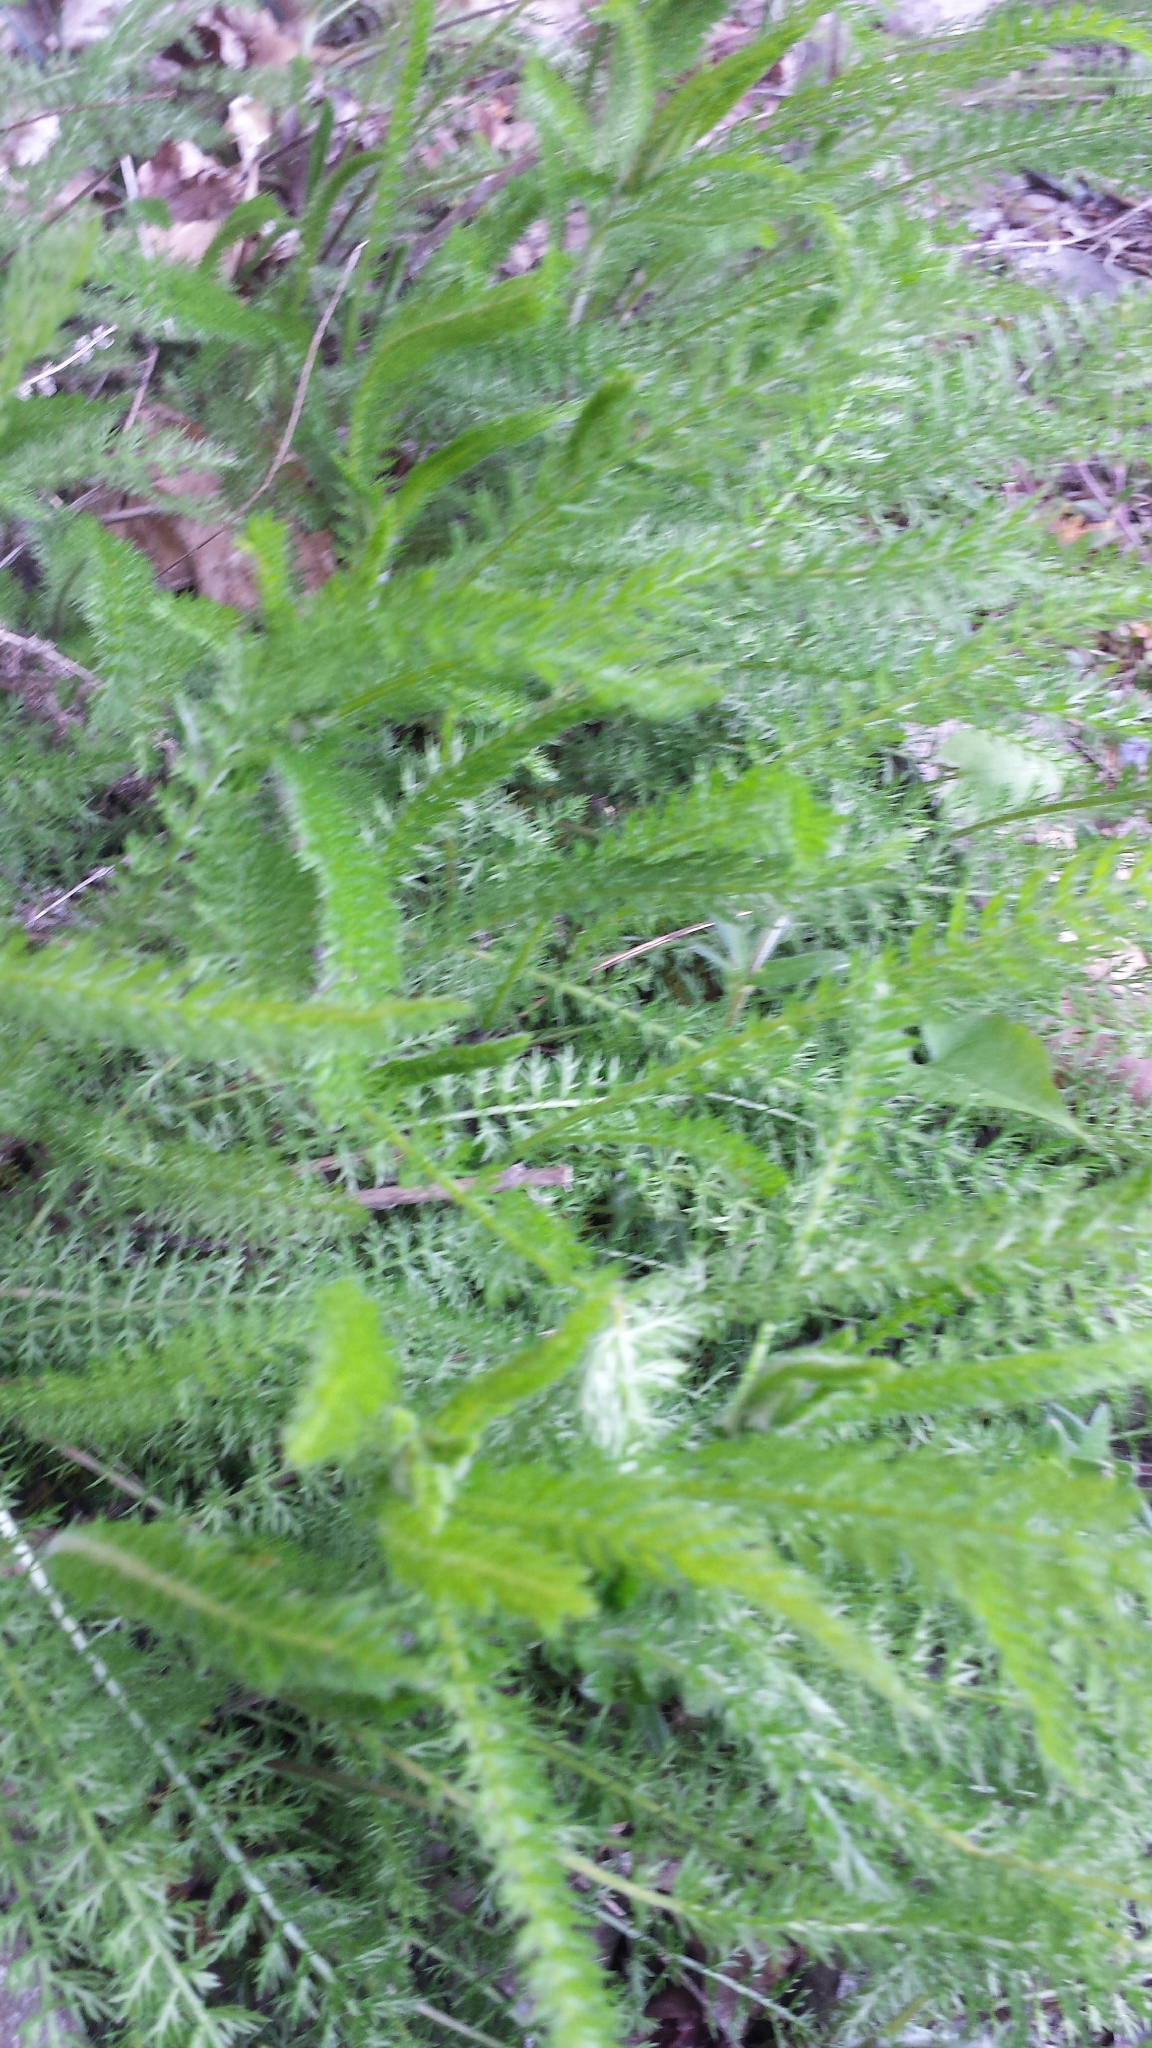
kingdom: Plantae
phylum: Tracheophyta
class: Magnoliopsida
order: Asterales
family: Asteraceae
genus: Achillea
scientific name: Achillea millefolium
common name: Yarrow
